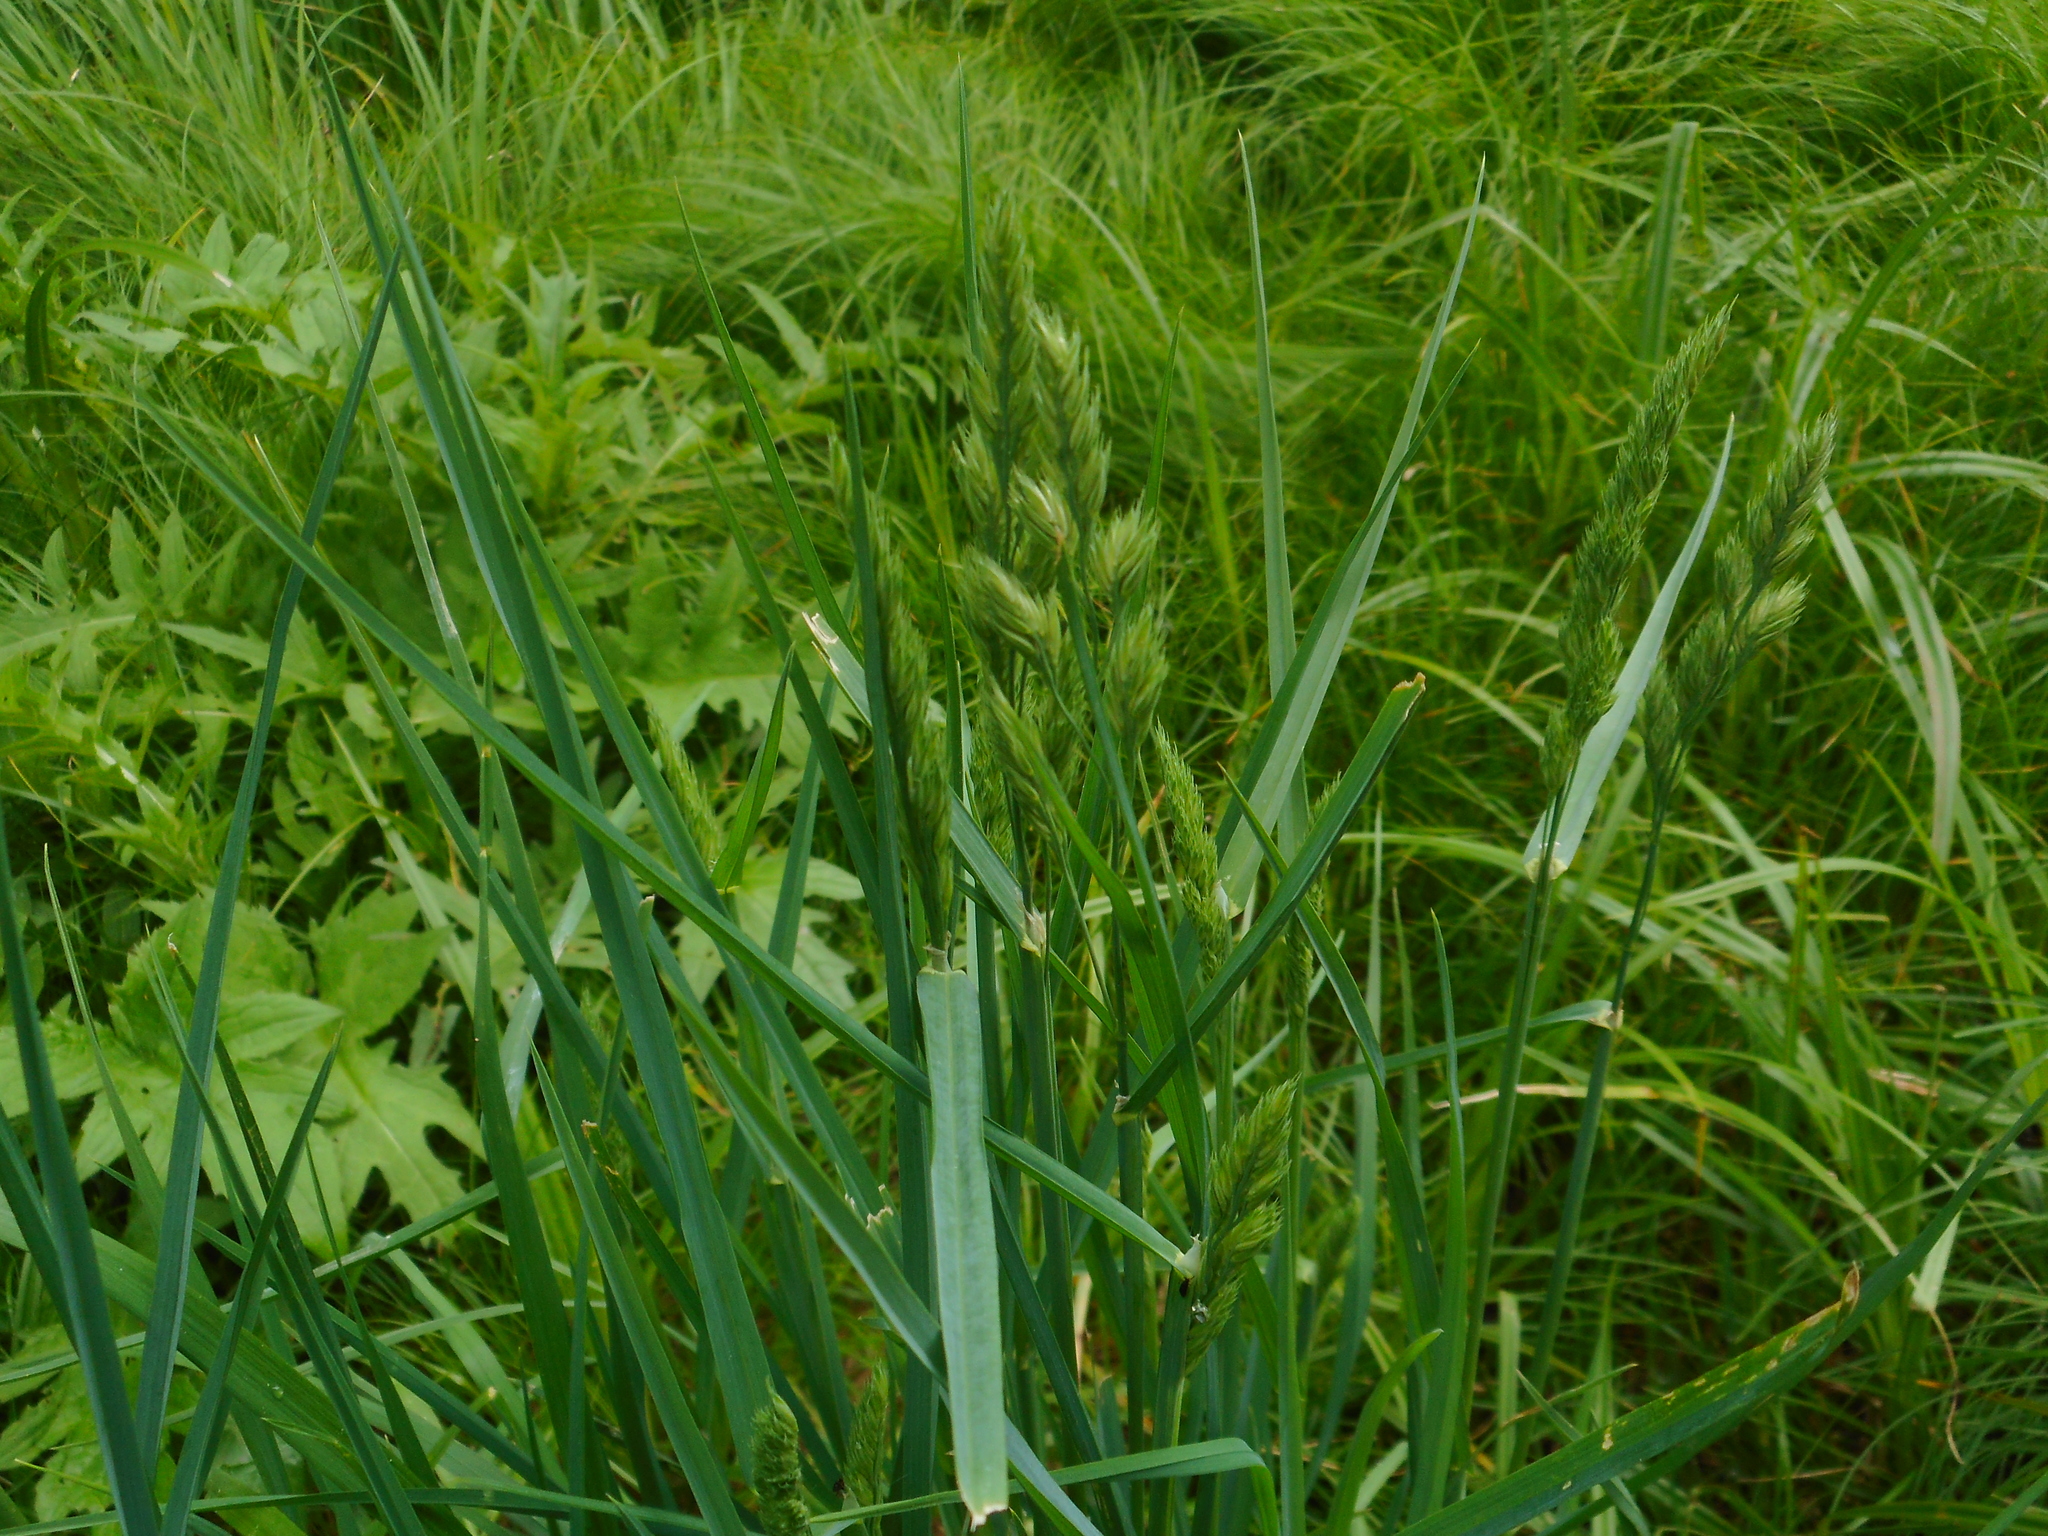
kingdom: Plantae
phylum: Tracheophyta
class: Liliopsida
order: Poales
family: Poaceae
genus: Dactylis
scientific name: Dactylis glomerata
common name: Orchardgrass
